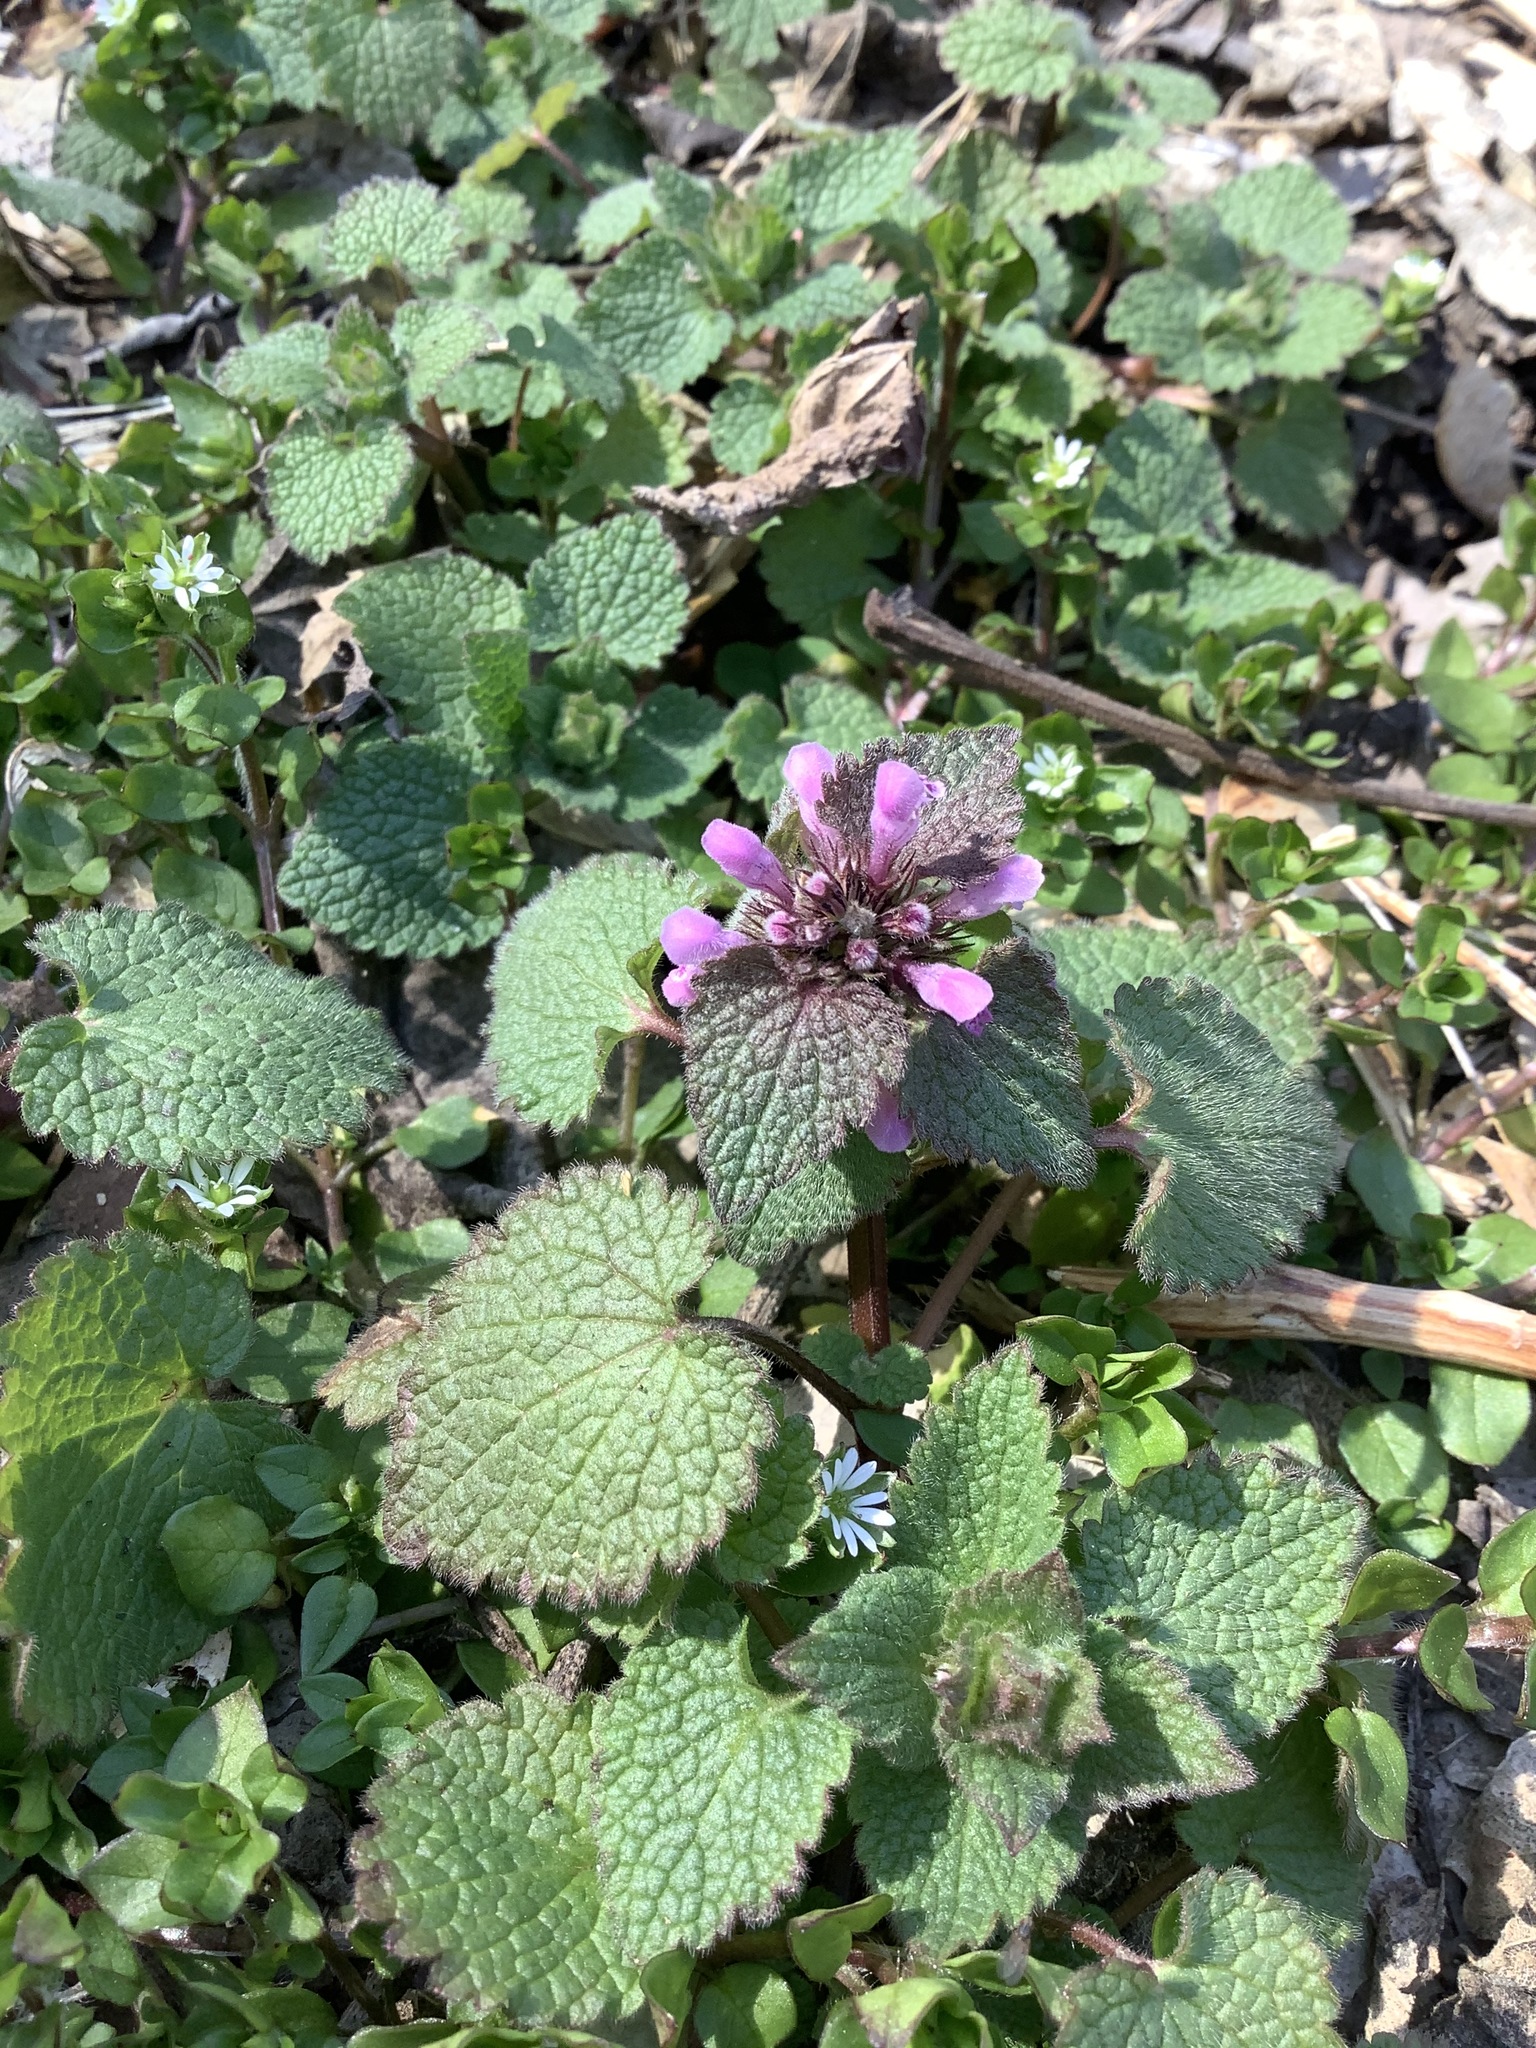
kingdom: Plantae
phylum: Tracheophyta
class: Magnoliopsida
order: Lamiales
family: Lamiaceae
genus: Lamium
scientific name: Lamium purpureum
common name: Red dead-nettle
